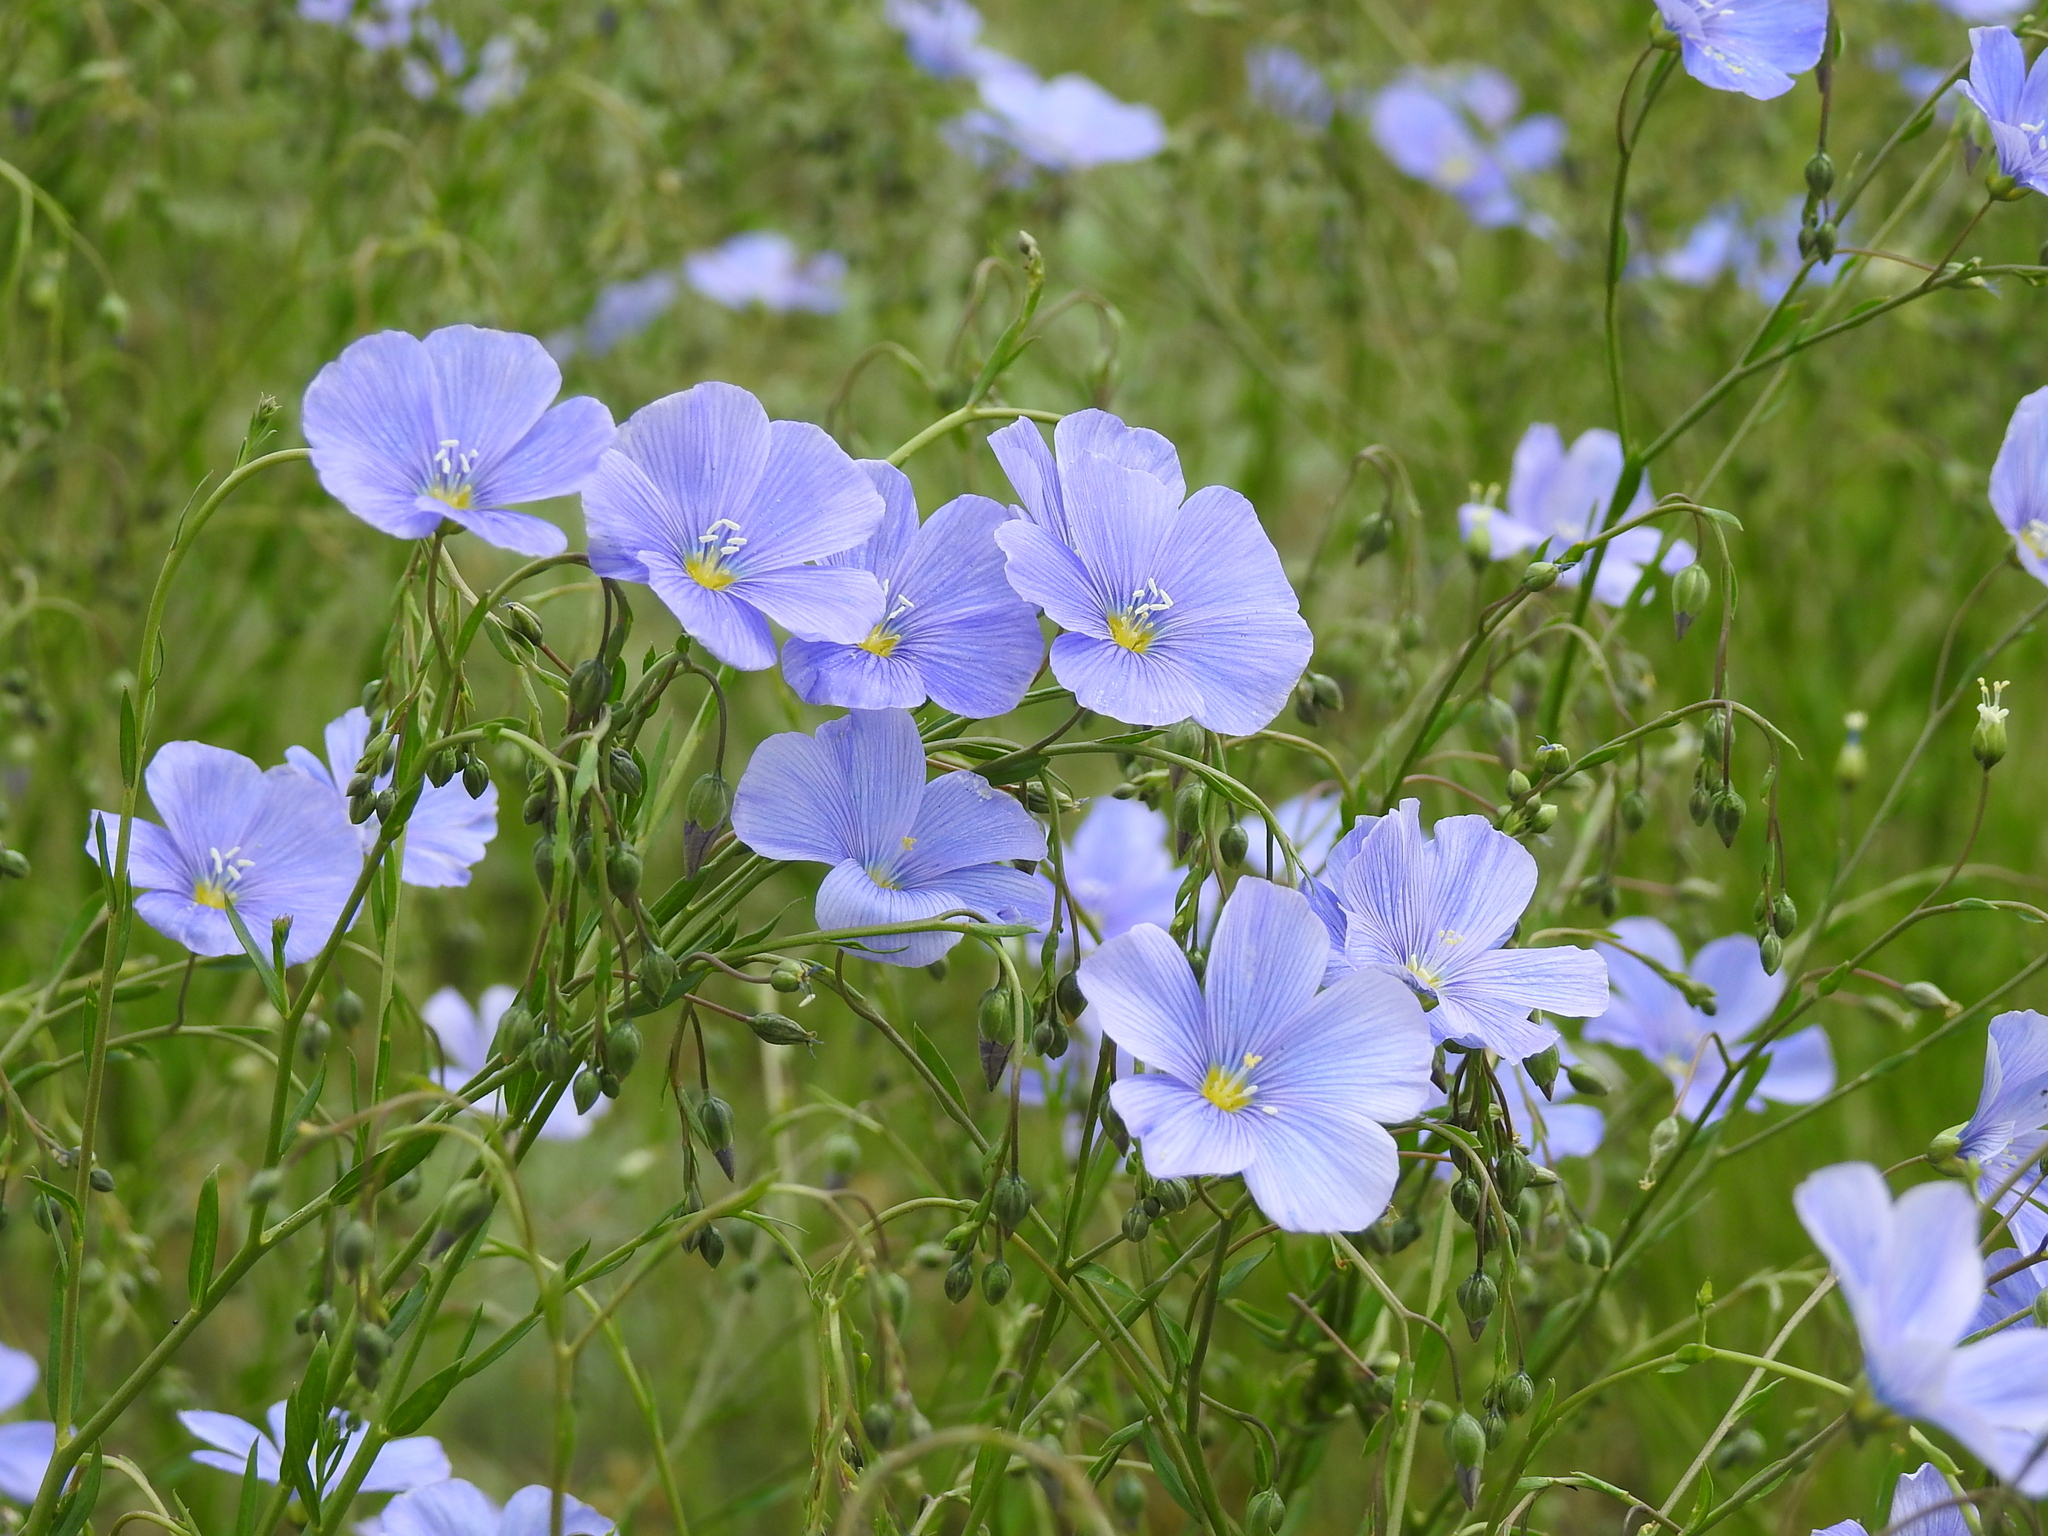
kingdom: Plantae
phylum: Tracheophyta
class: Magnoliopsida
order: Malpighiales
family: Linaceae
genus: Linum
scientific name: Linum austriacum
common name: Austrian flax
